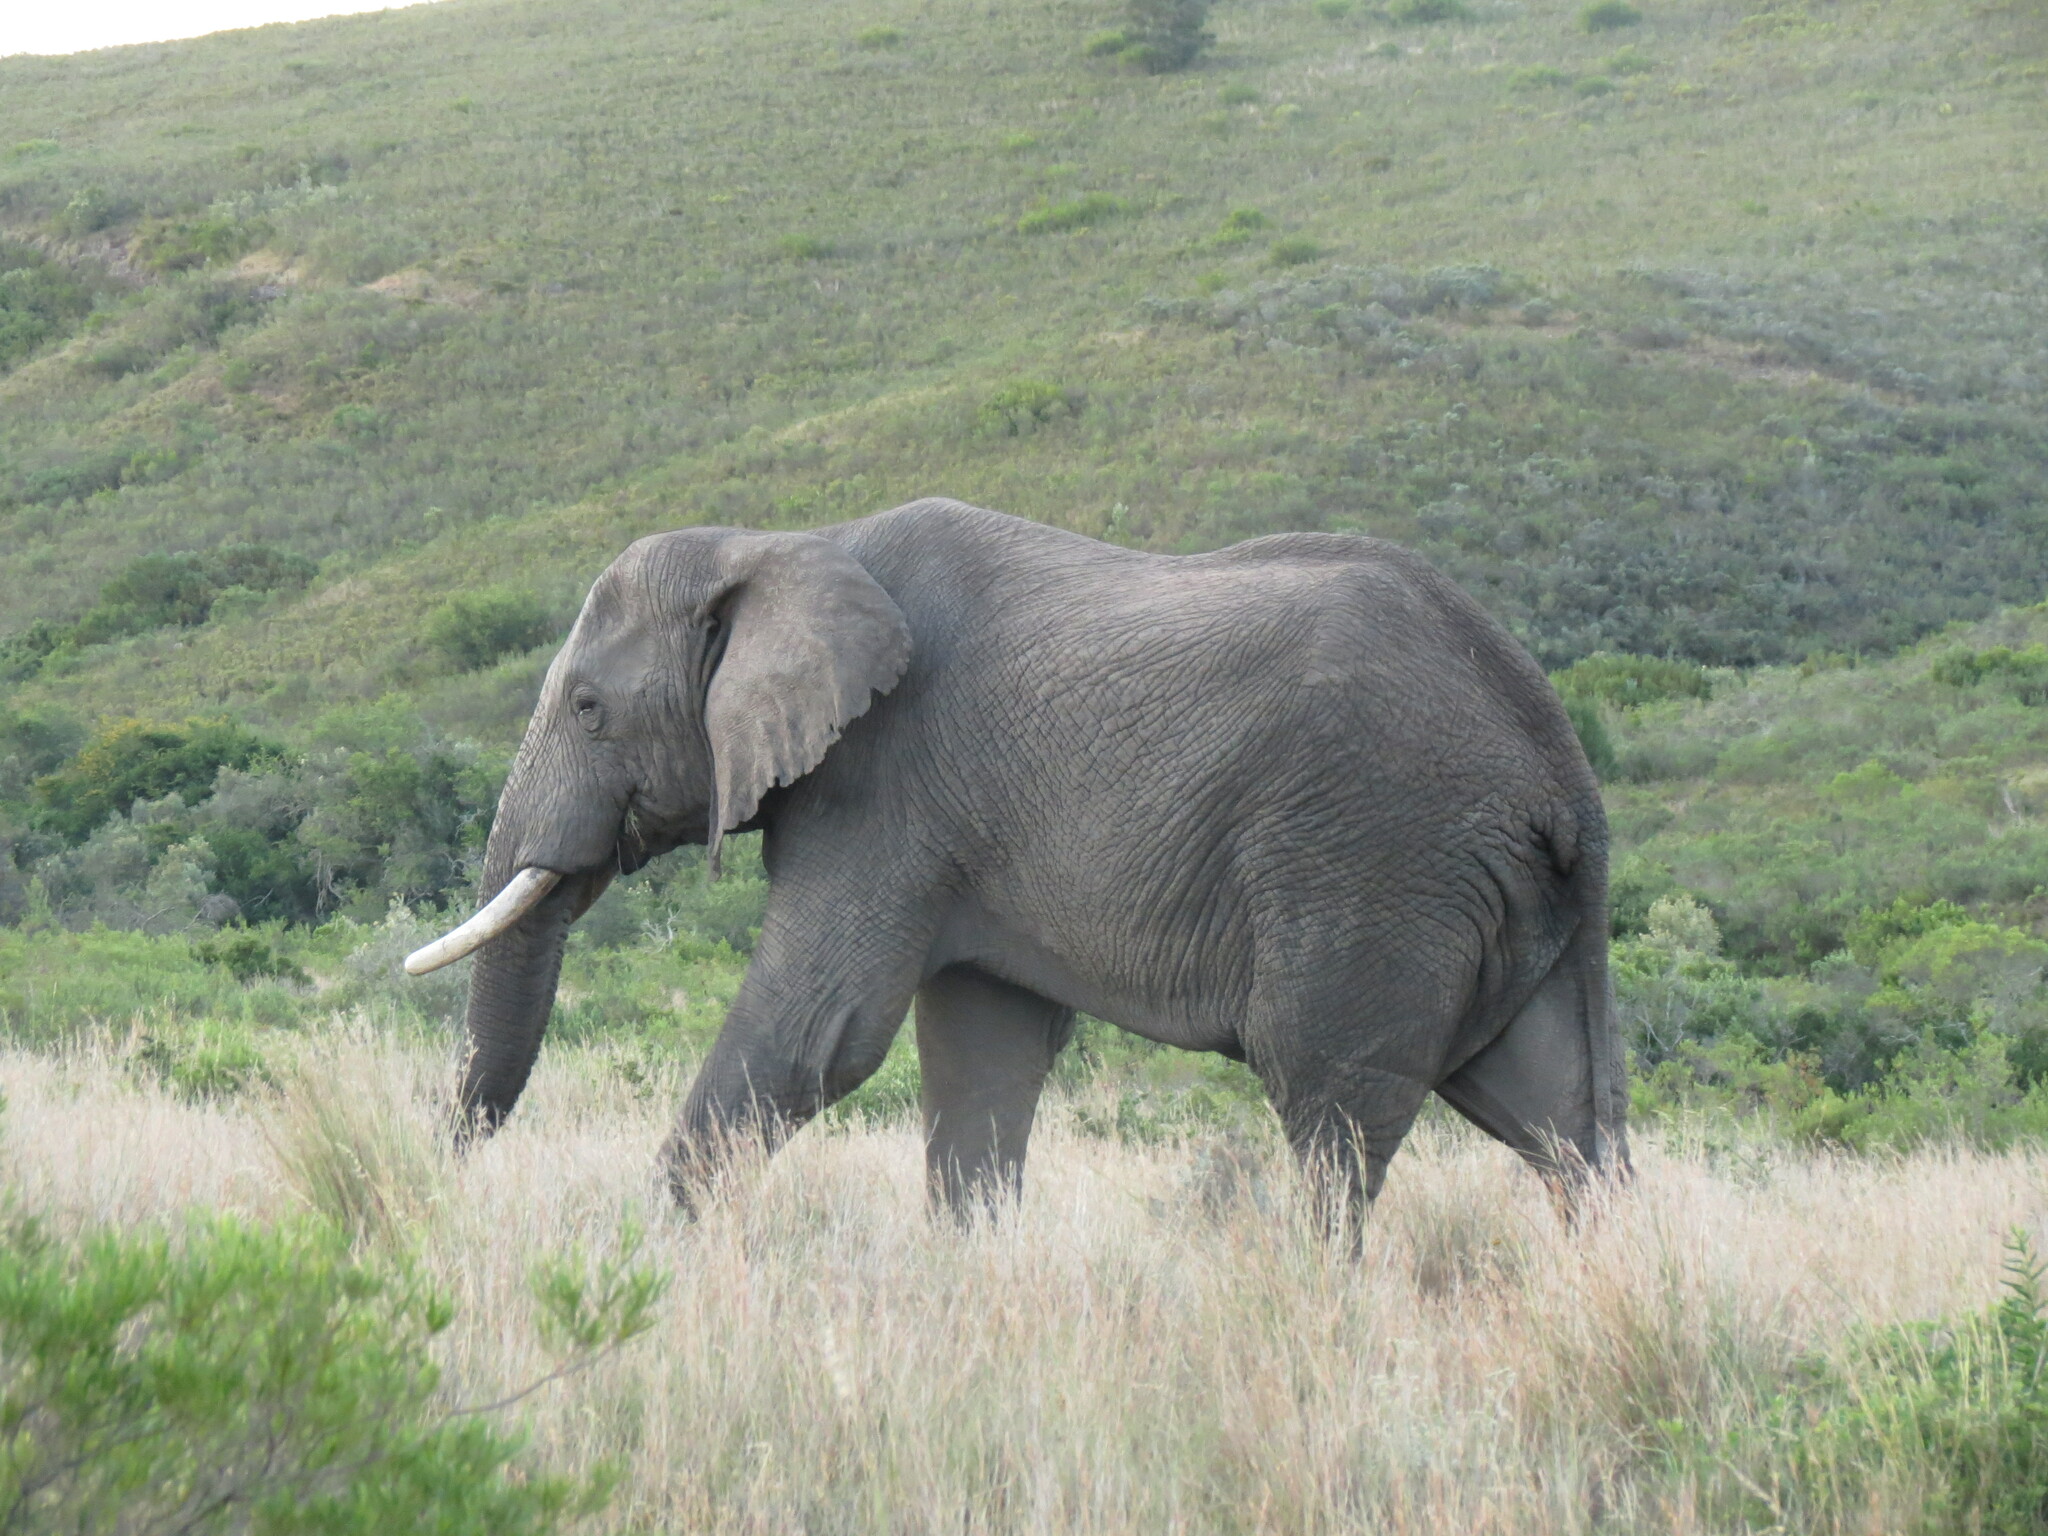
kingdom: Animalia
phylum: Chordata
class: Mammalia
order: Proboscidea
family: Elephantidae
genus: Loxodonta
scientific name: Loxodonta africana
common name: African elephant
